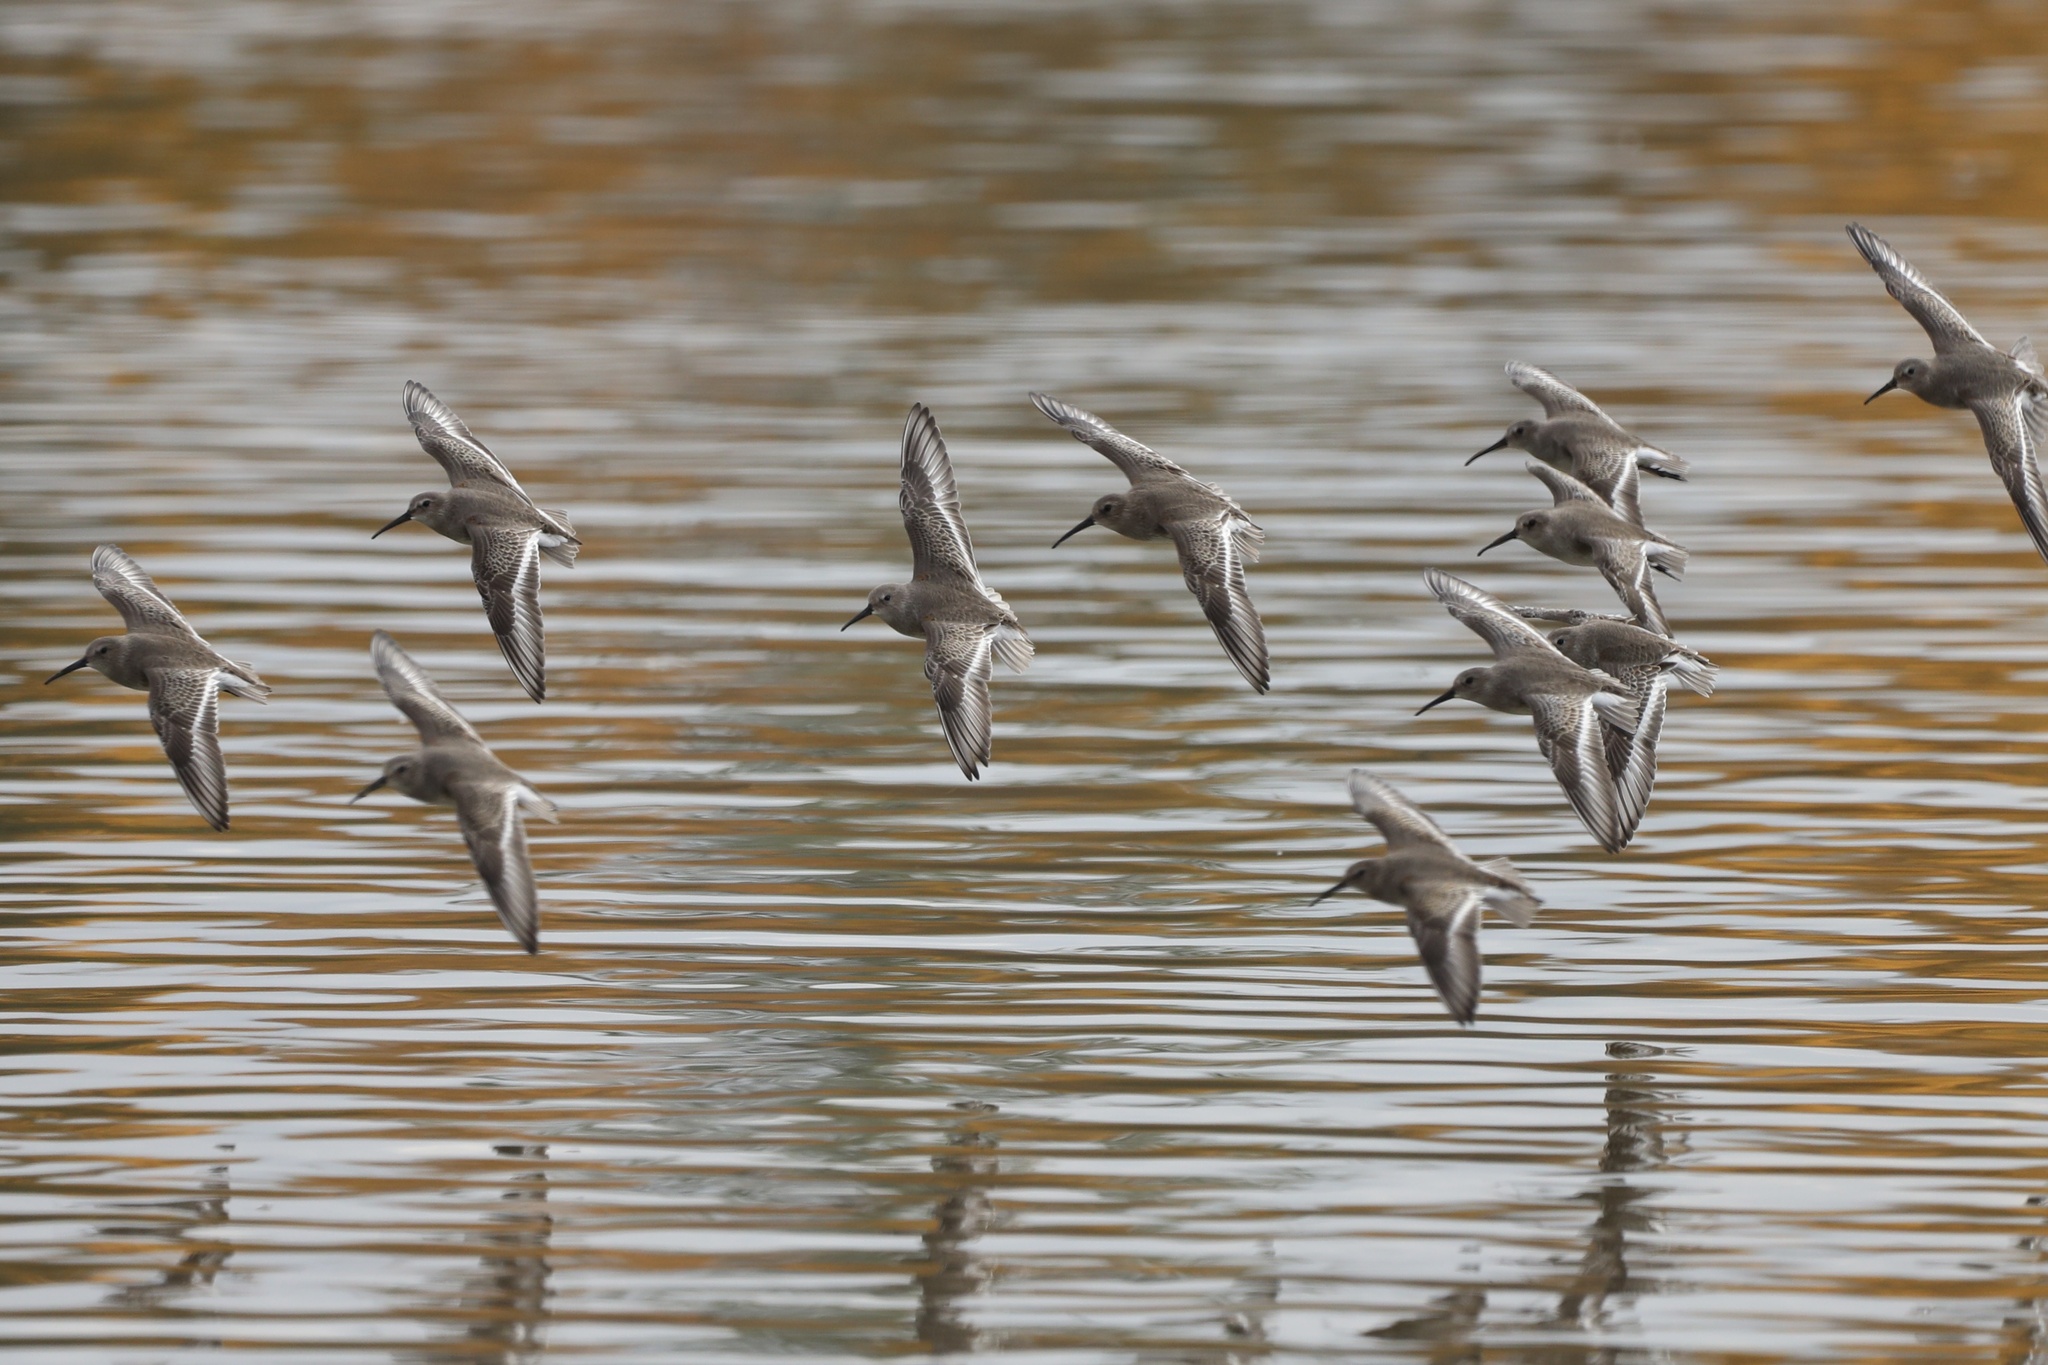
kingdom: Animalia
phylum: Chordata
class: Aves
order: Charadriiformes
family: Scolopacidae
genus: Calidris
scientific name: Calidris alpina
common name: Dunlin
